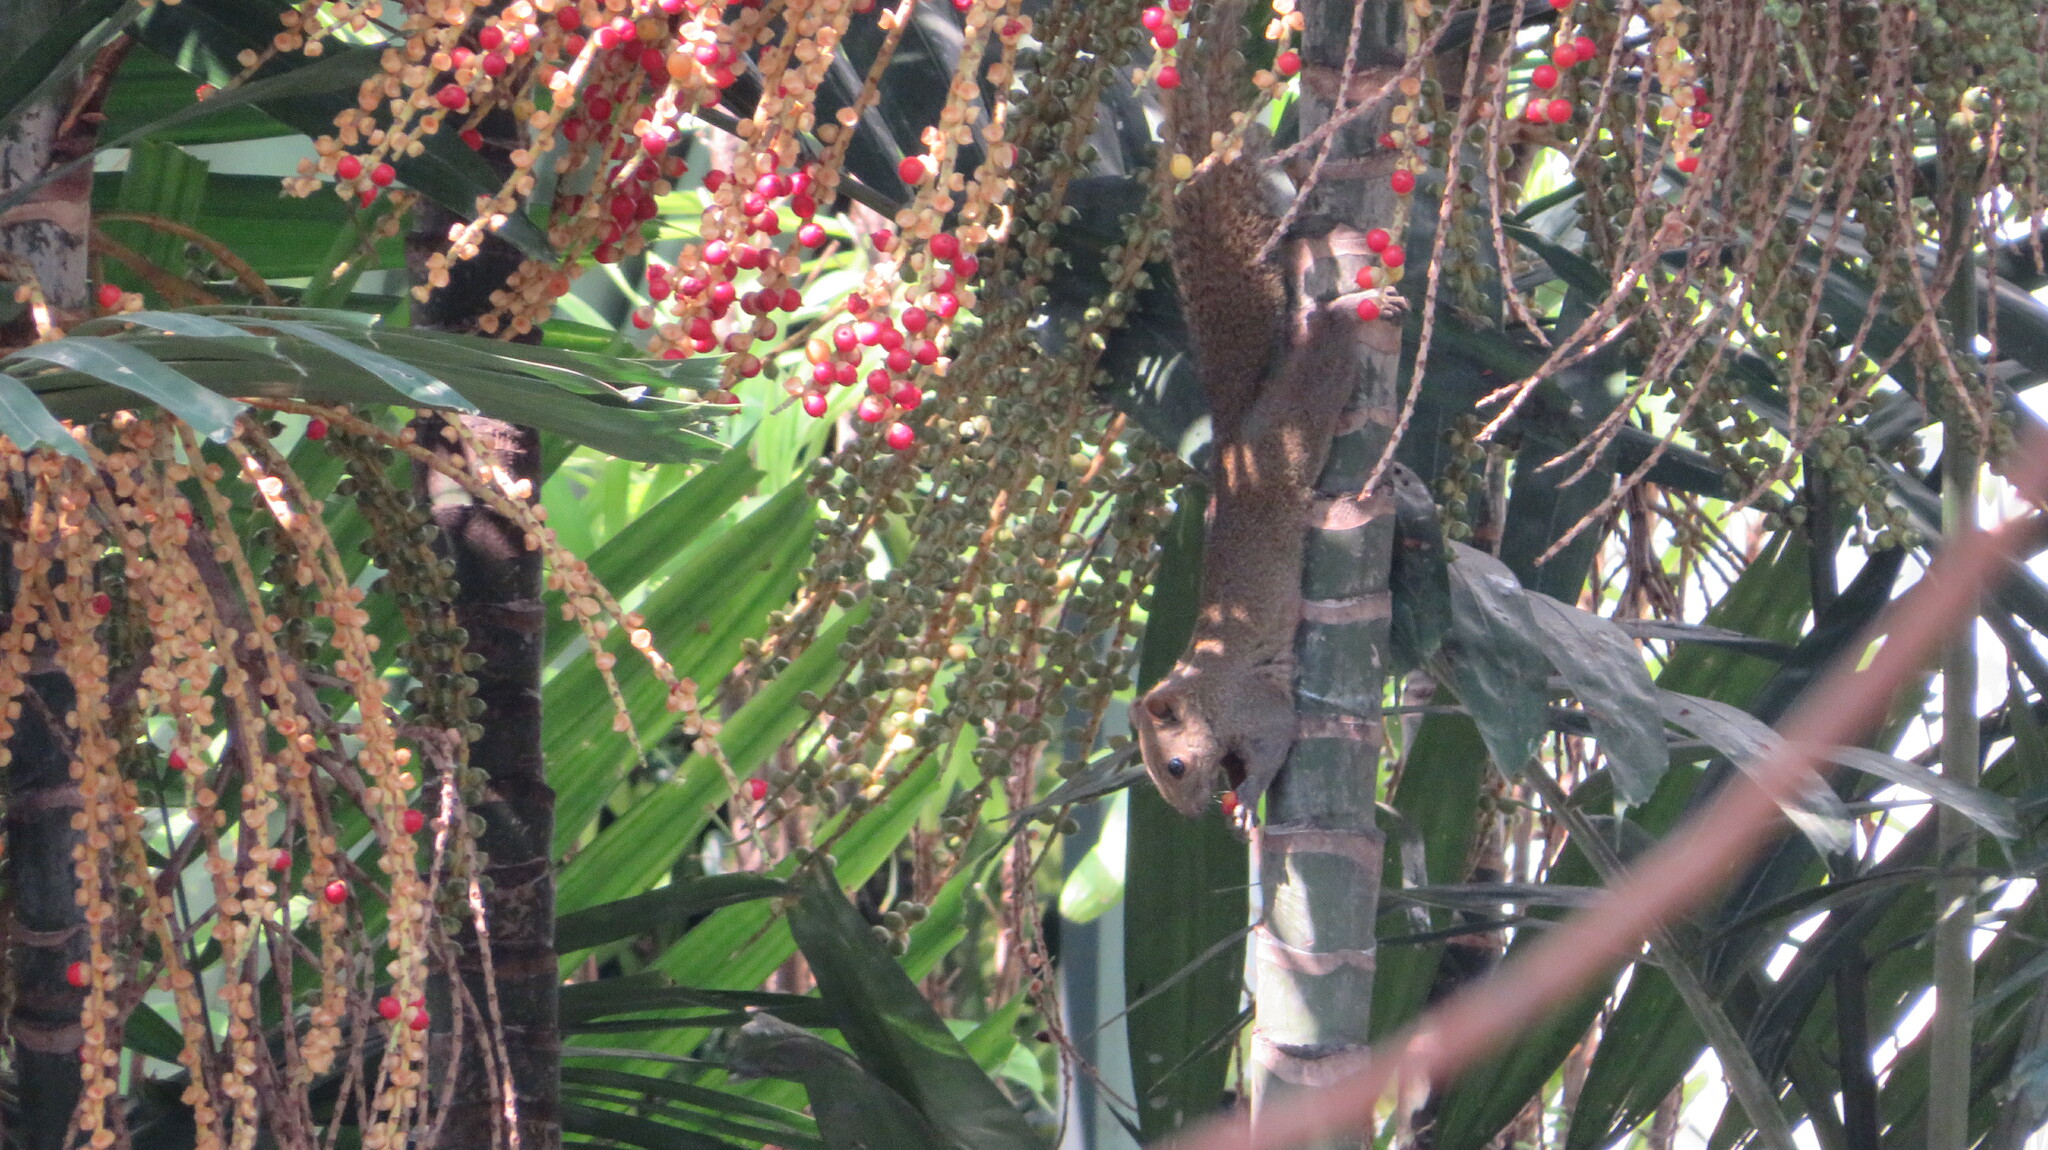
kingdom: Animalia
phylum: Chordata
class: Mammalia
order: Rodentia
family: Sciuridae
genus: Callosciurus
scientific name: Callosciurus erythraeus
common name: Pallas's squirrel
